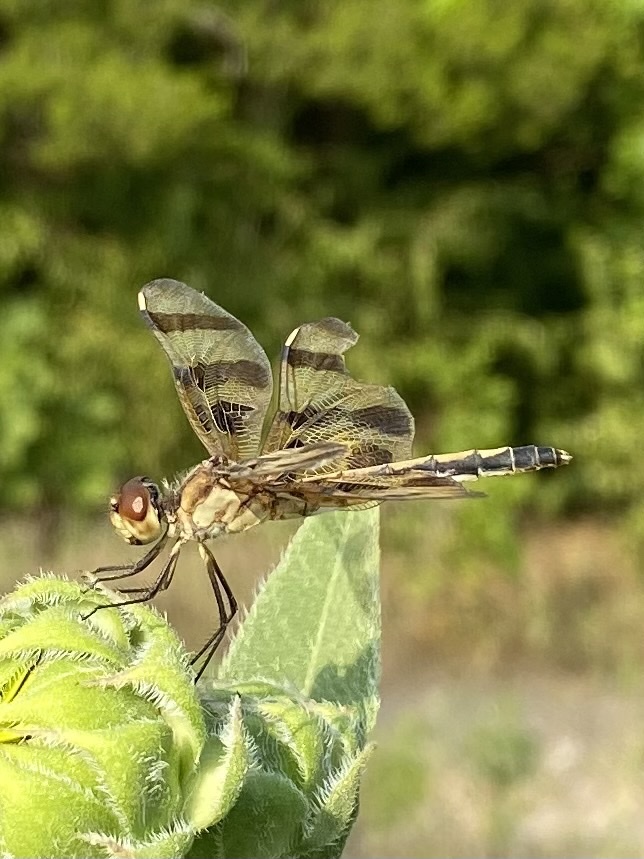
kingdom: Animalia
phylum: Arthropoda
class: Insecta
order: Odonata
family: Libellulidae
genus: Celithemis
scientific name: Celithemis eponina
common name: Halloween pennant
